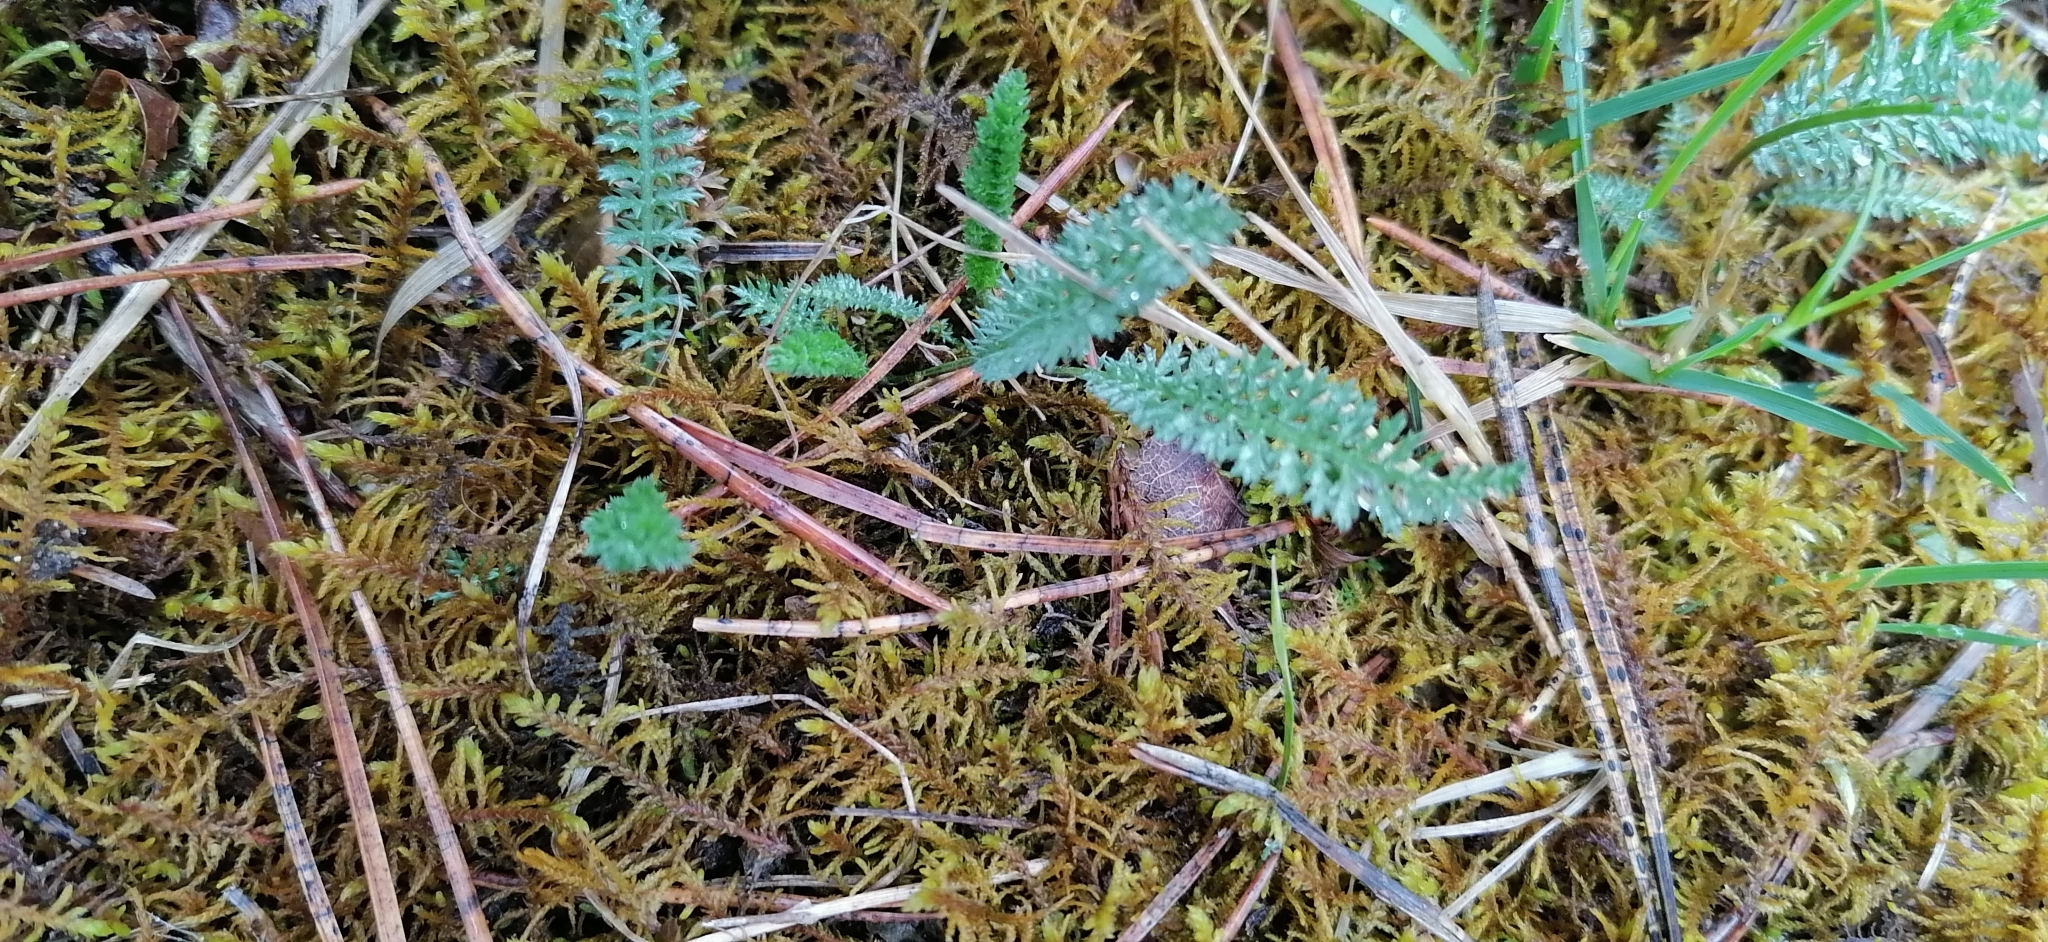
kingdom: Plantae
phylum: Tracheophyta
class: Magnoliopsida
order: Asterales
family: Asteraceae
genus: Achillea
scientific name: Achillea millefolium
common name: Yarrow
